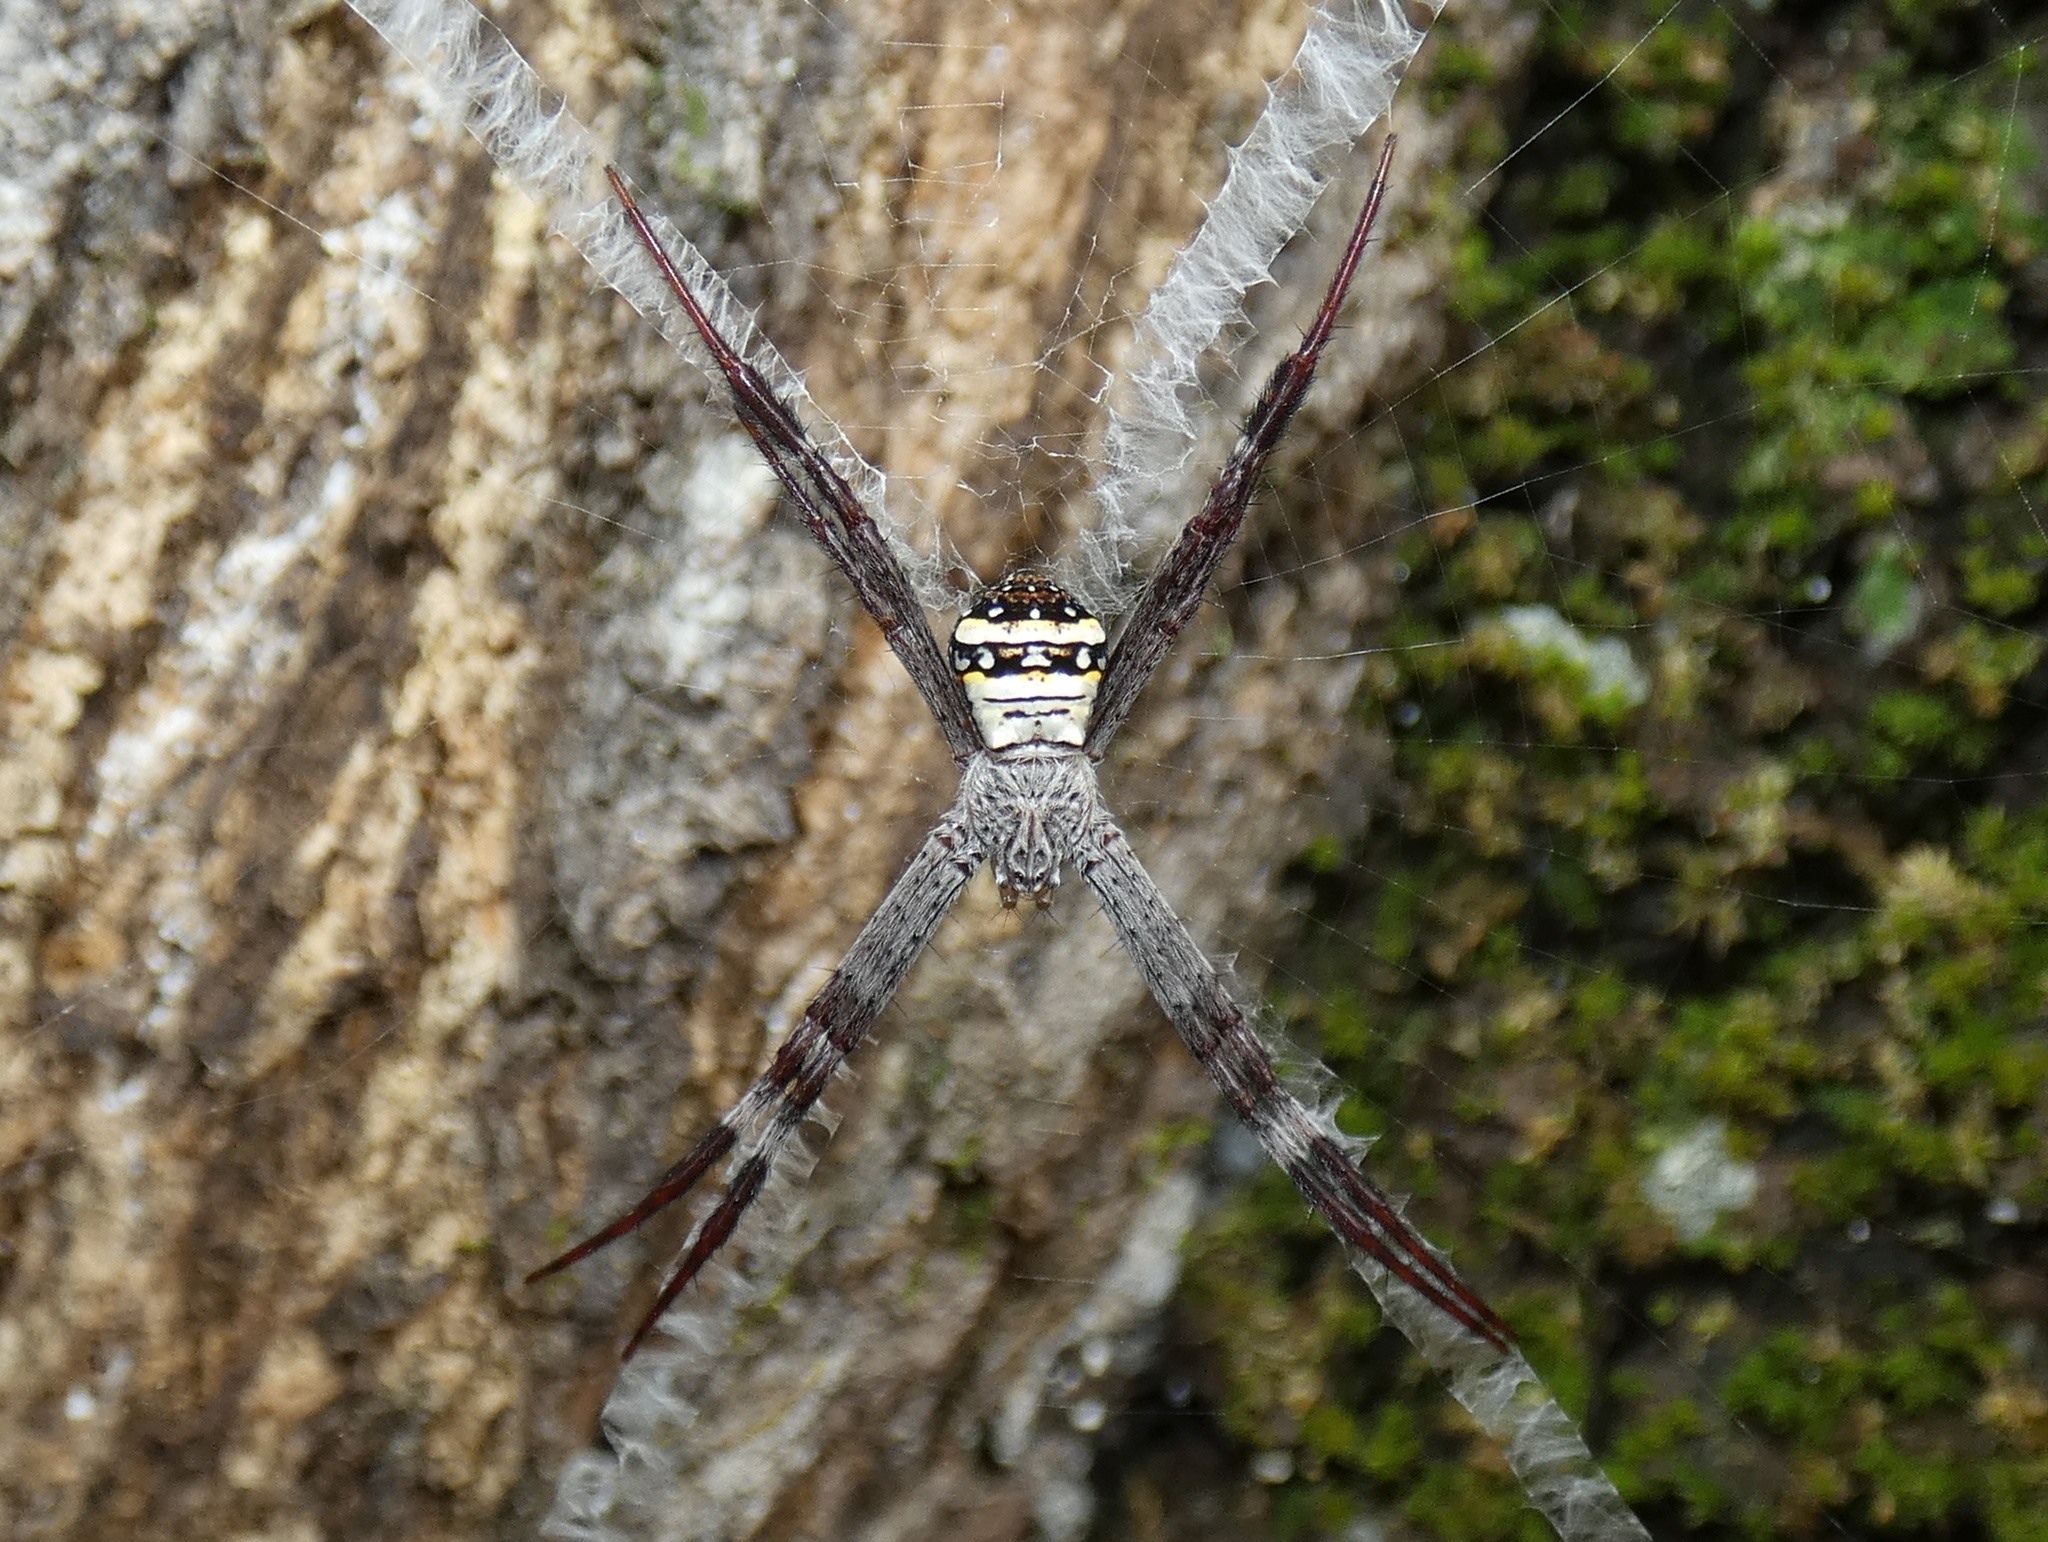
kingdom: Animalia
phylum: Arthropoda
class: Arachnida
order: Araneae
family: Araneidae
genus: Argiope
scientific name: Argiope aetherea
